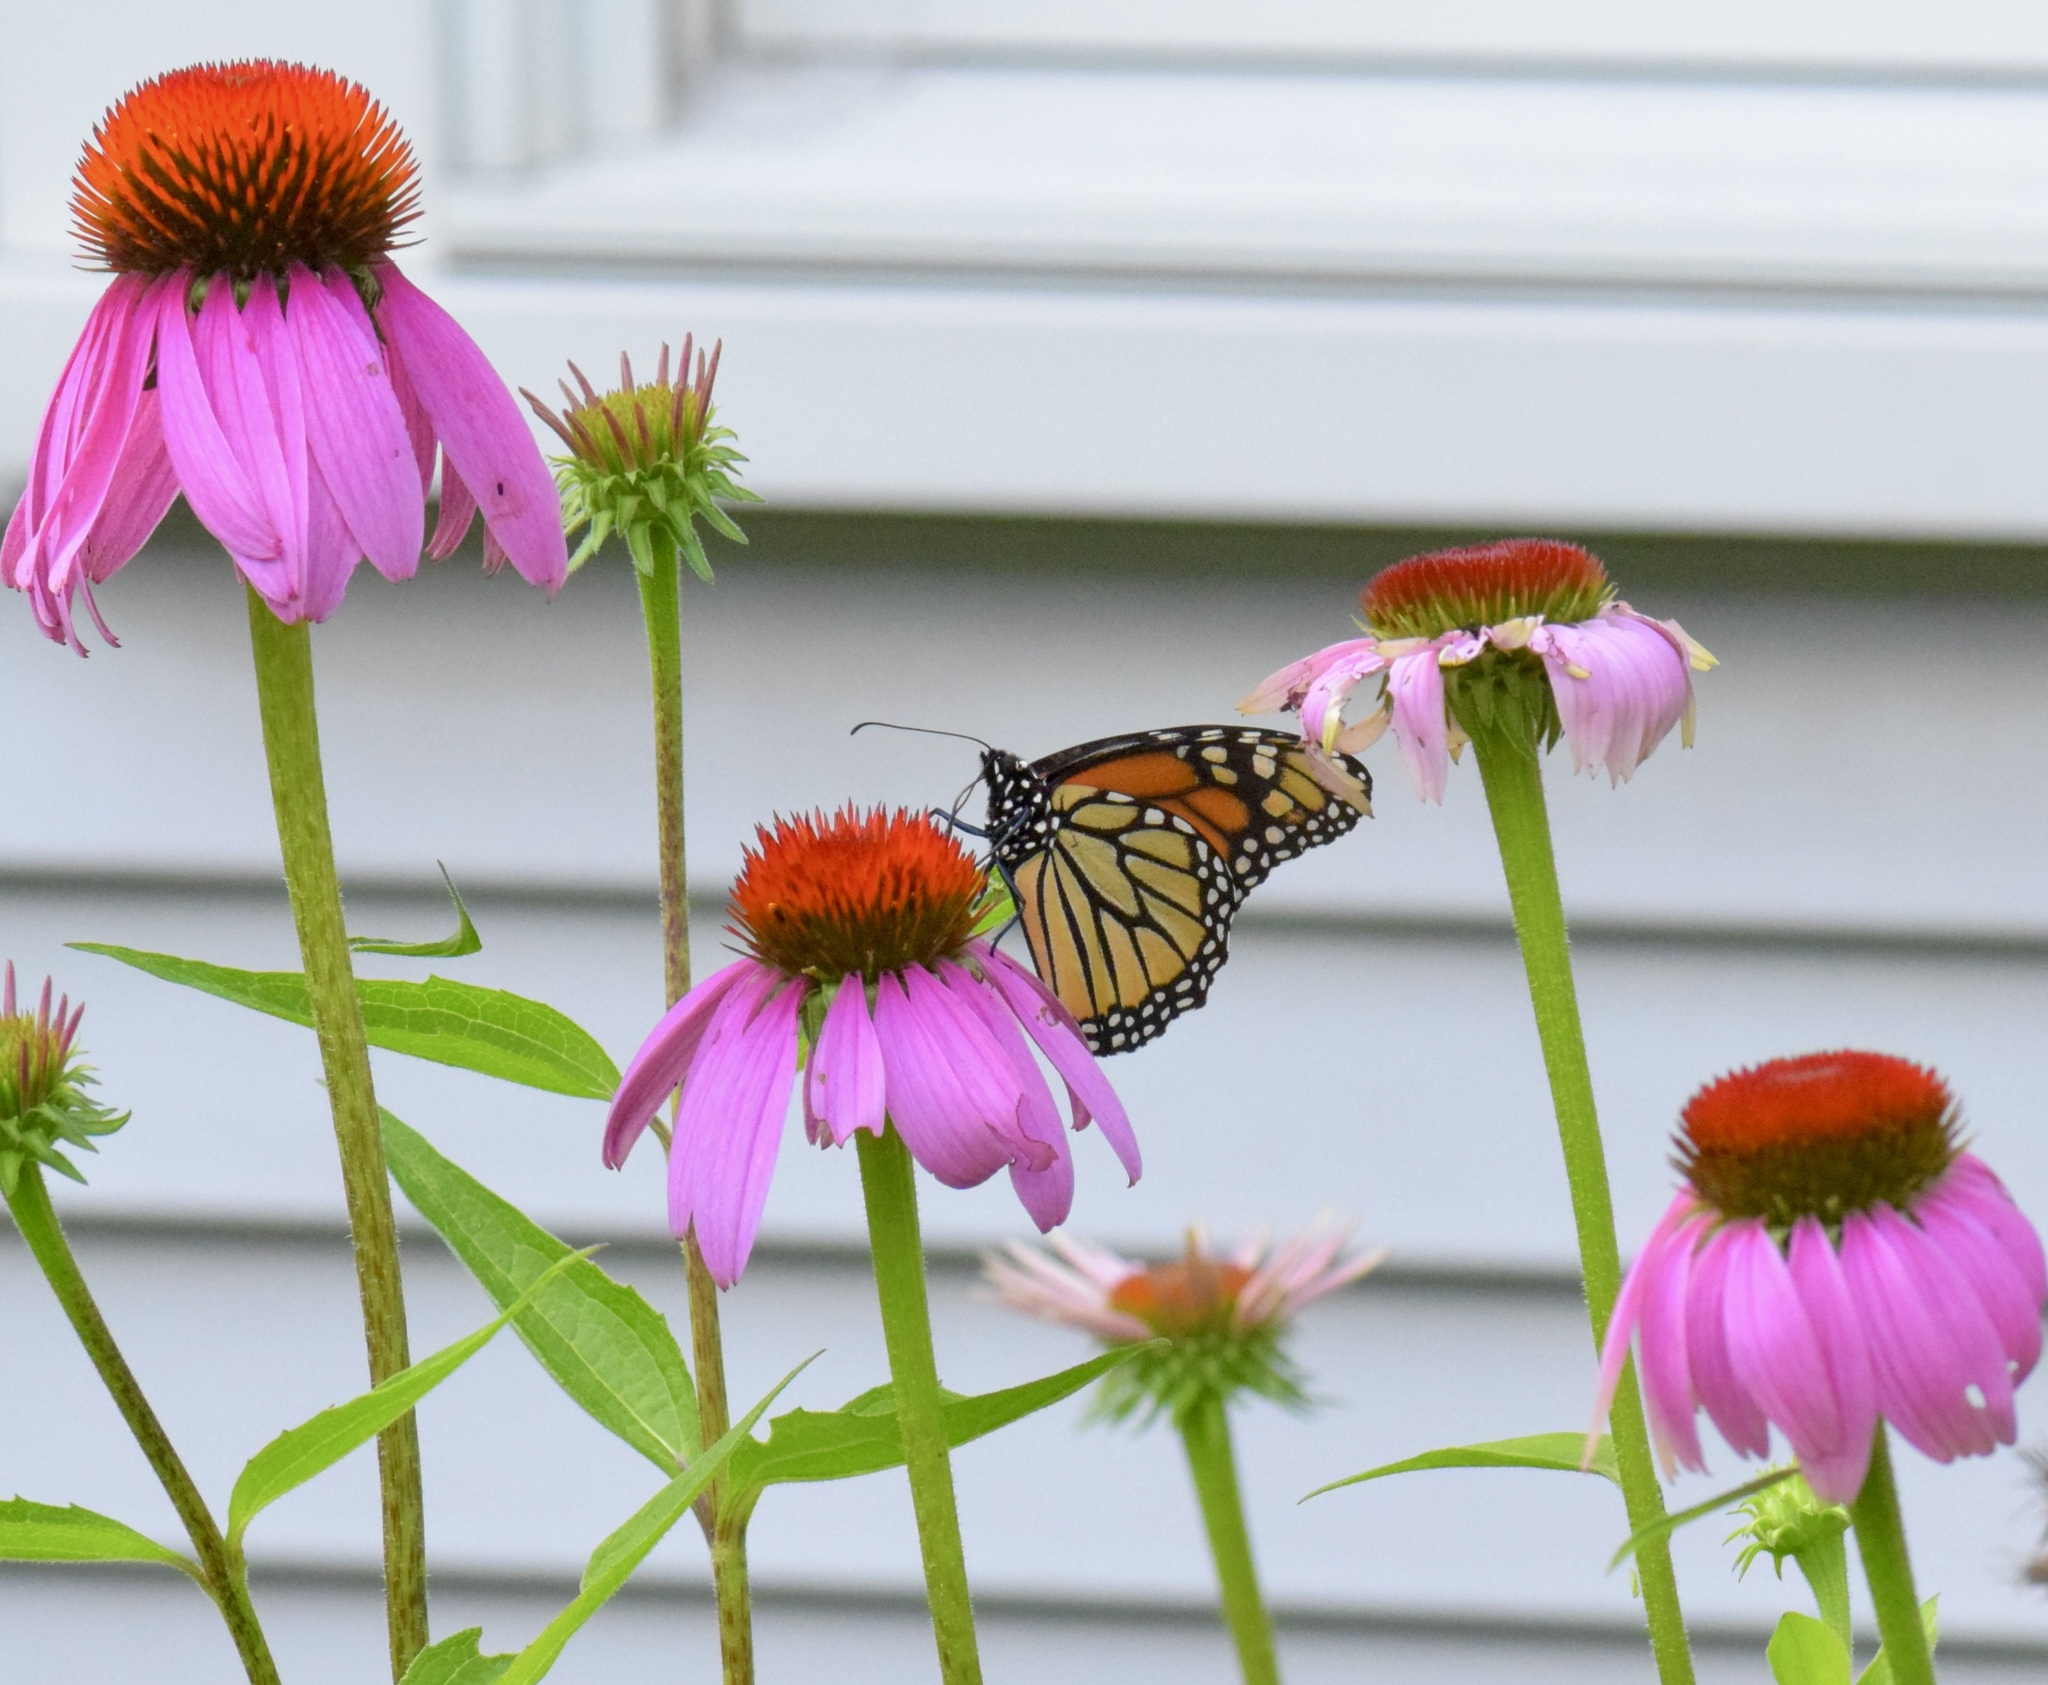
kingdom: Animalia
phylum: Arthropoda
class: Insecta
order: Lepidoptera
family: Nymphalidae
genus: Danaus
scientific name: Danaus plexippus
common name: Monarch
